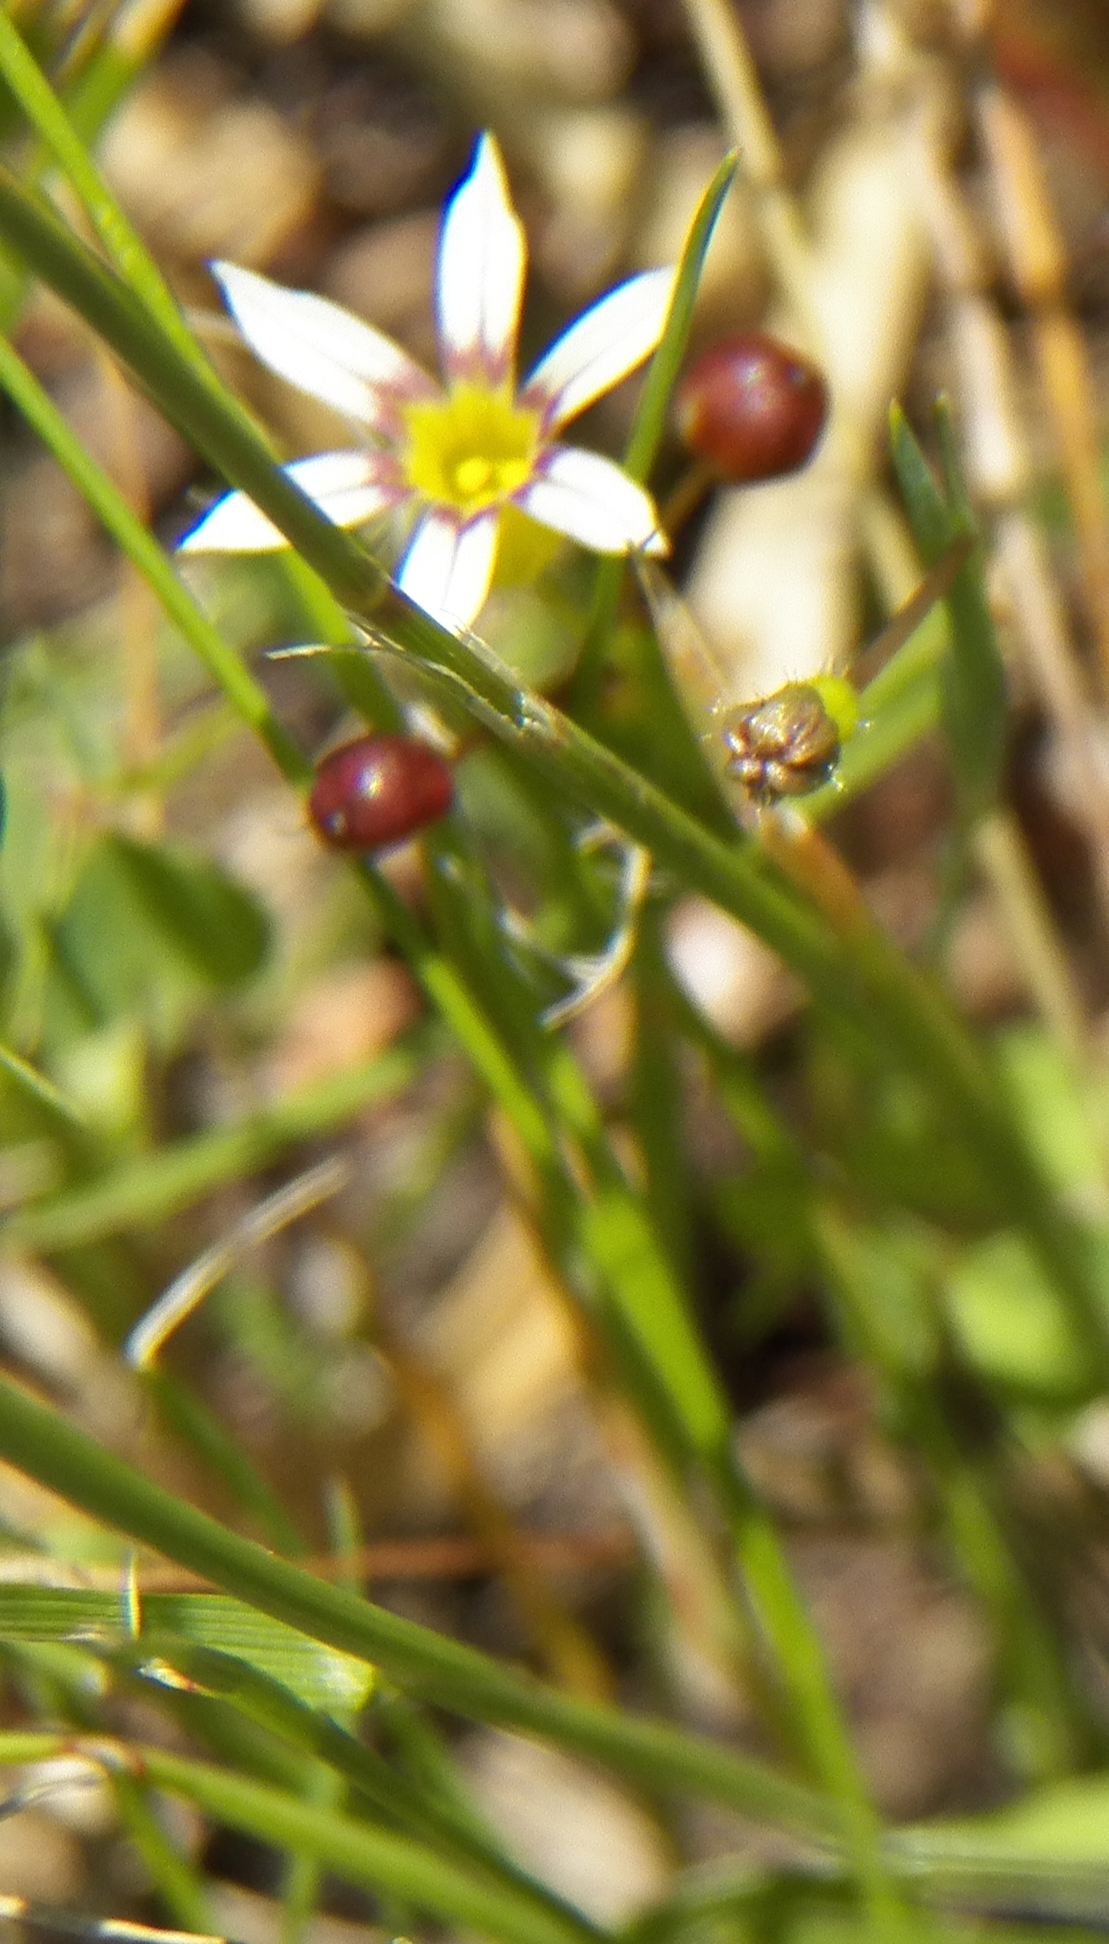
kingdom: Plantae
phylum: Tracheophyta
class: Liliopsida
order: Asparagales
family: Iridaceae
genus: Sisyrinchium
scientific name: Sisyrinchium micranthum
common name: Bermuda pigroot
